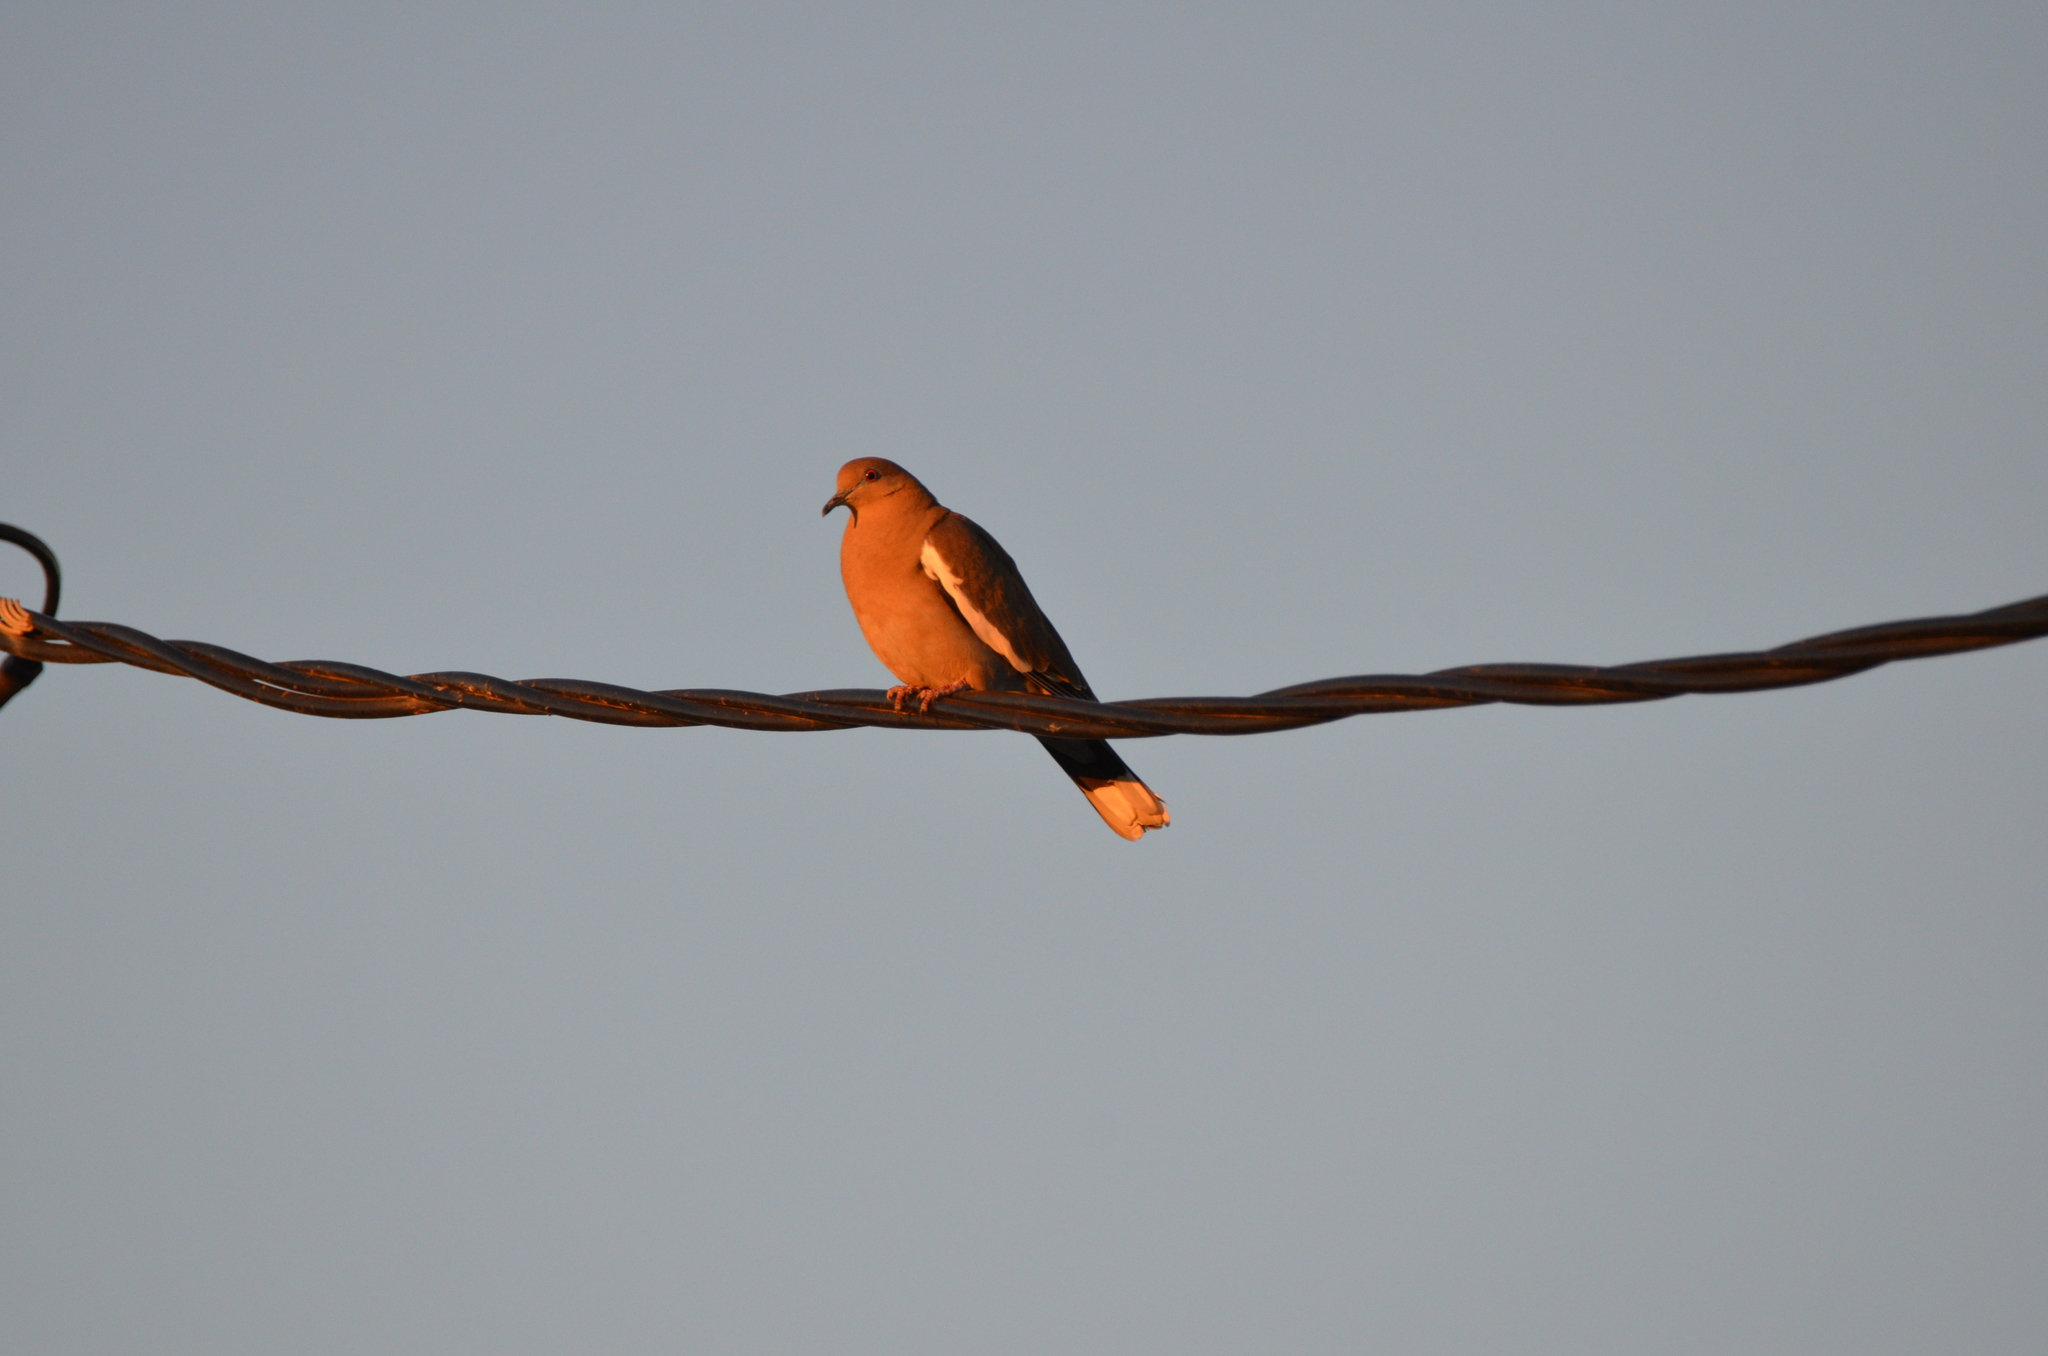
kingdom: Animalia
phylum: Chordata
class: Aves
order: Columbiformes
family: Columbidae
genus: Zenaida
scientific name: Zenaida asiatica
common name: White-winged dove
